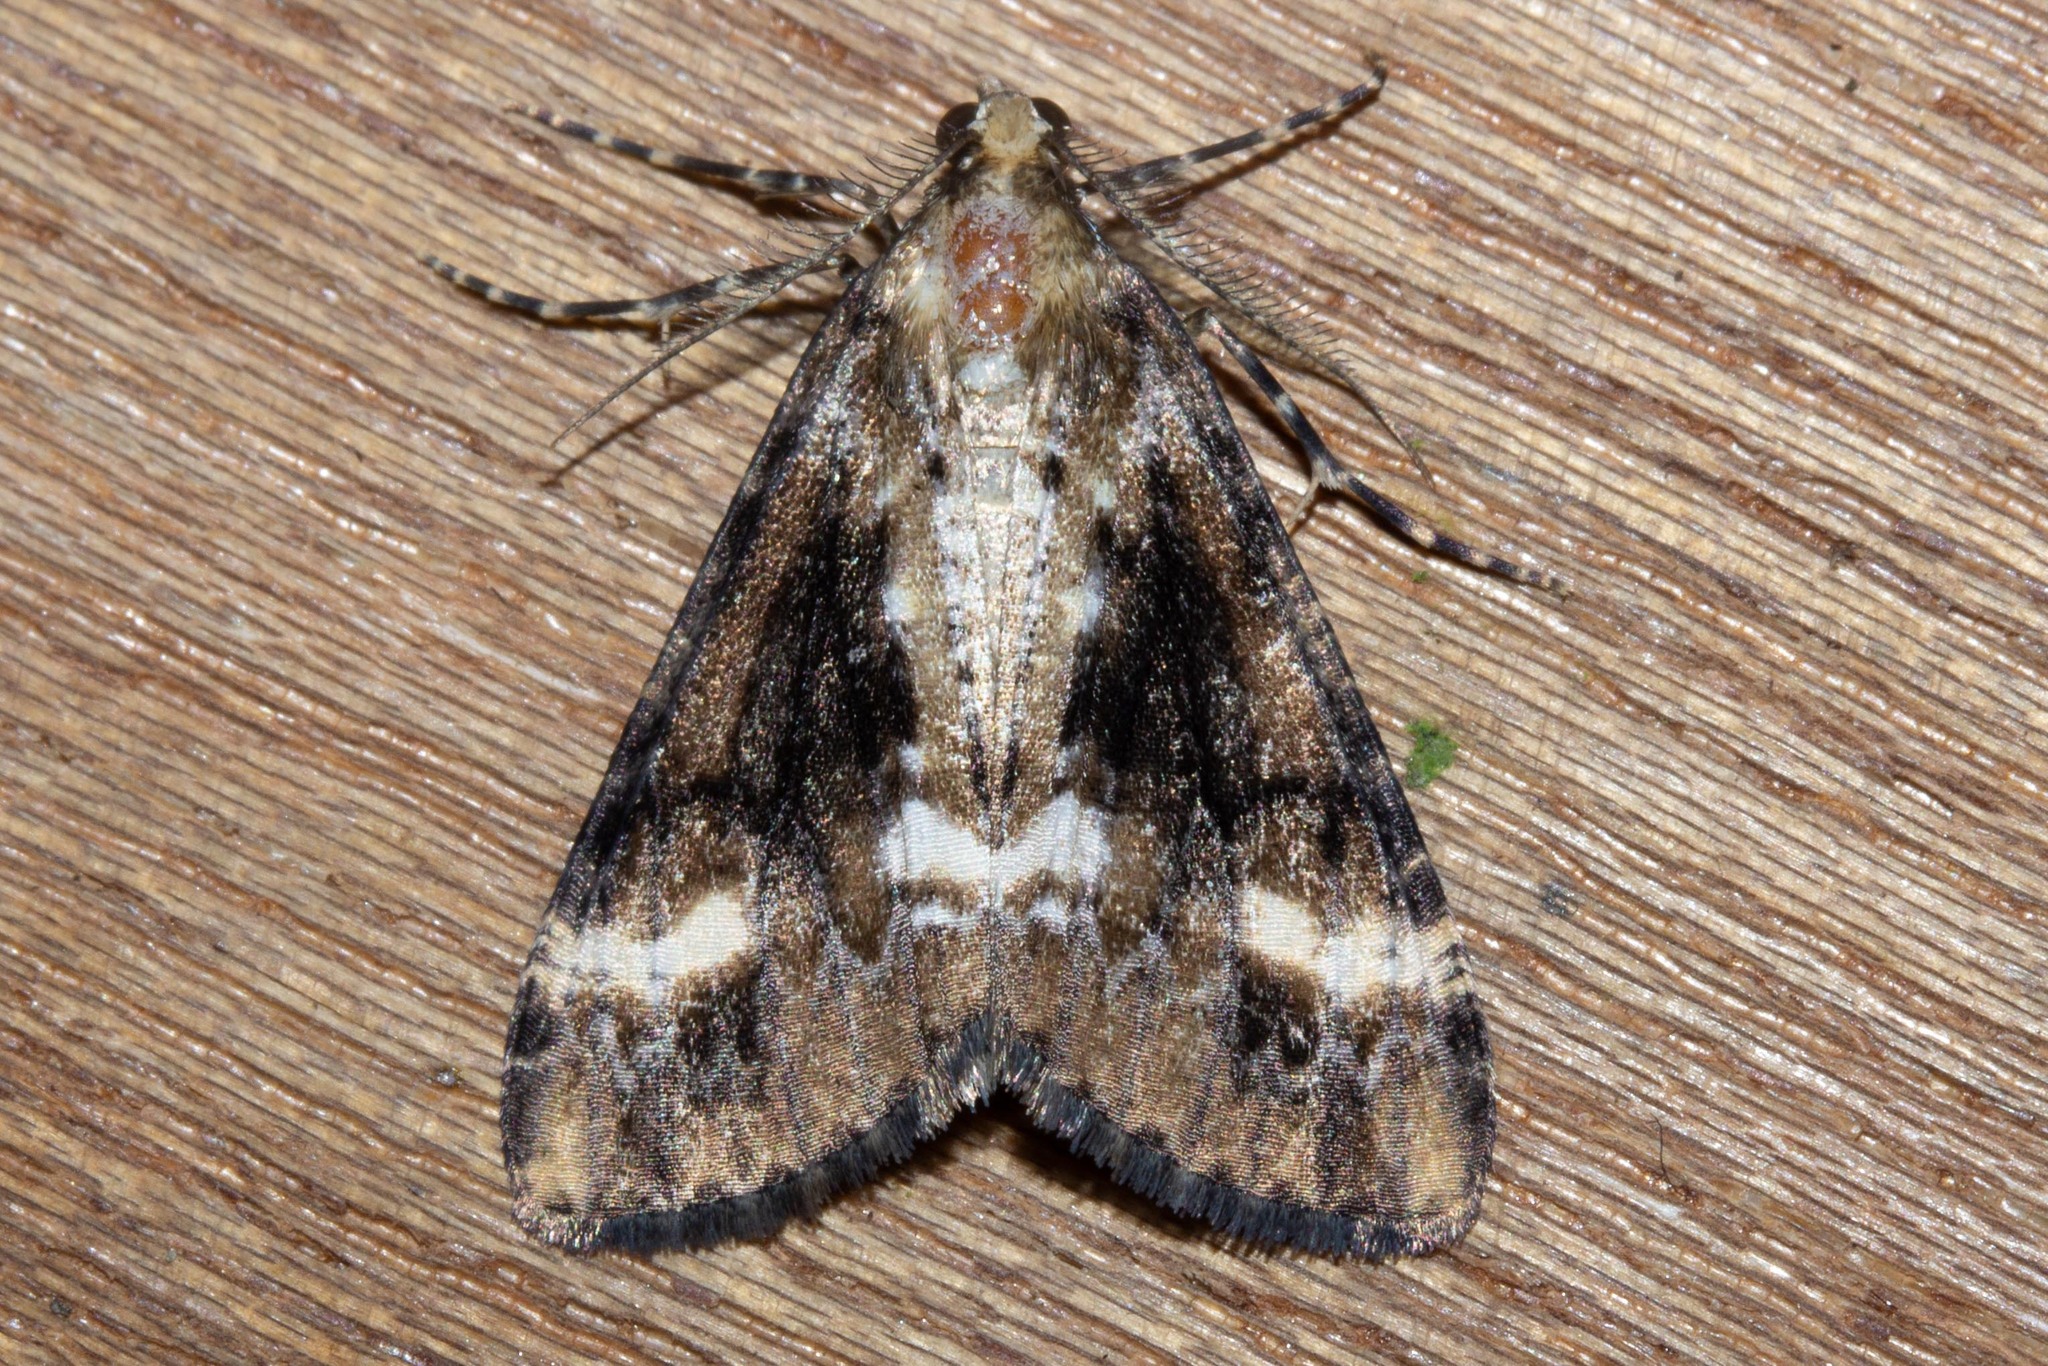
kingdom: Animalia
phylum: Arthropoda
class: Insecta
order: Lepidoptera
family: Geometridae
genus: Pseudocoremia
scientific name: Pseudocoremia leucelaea
